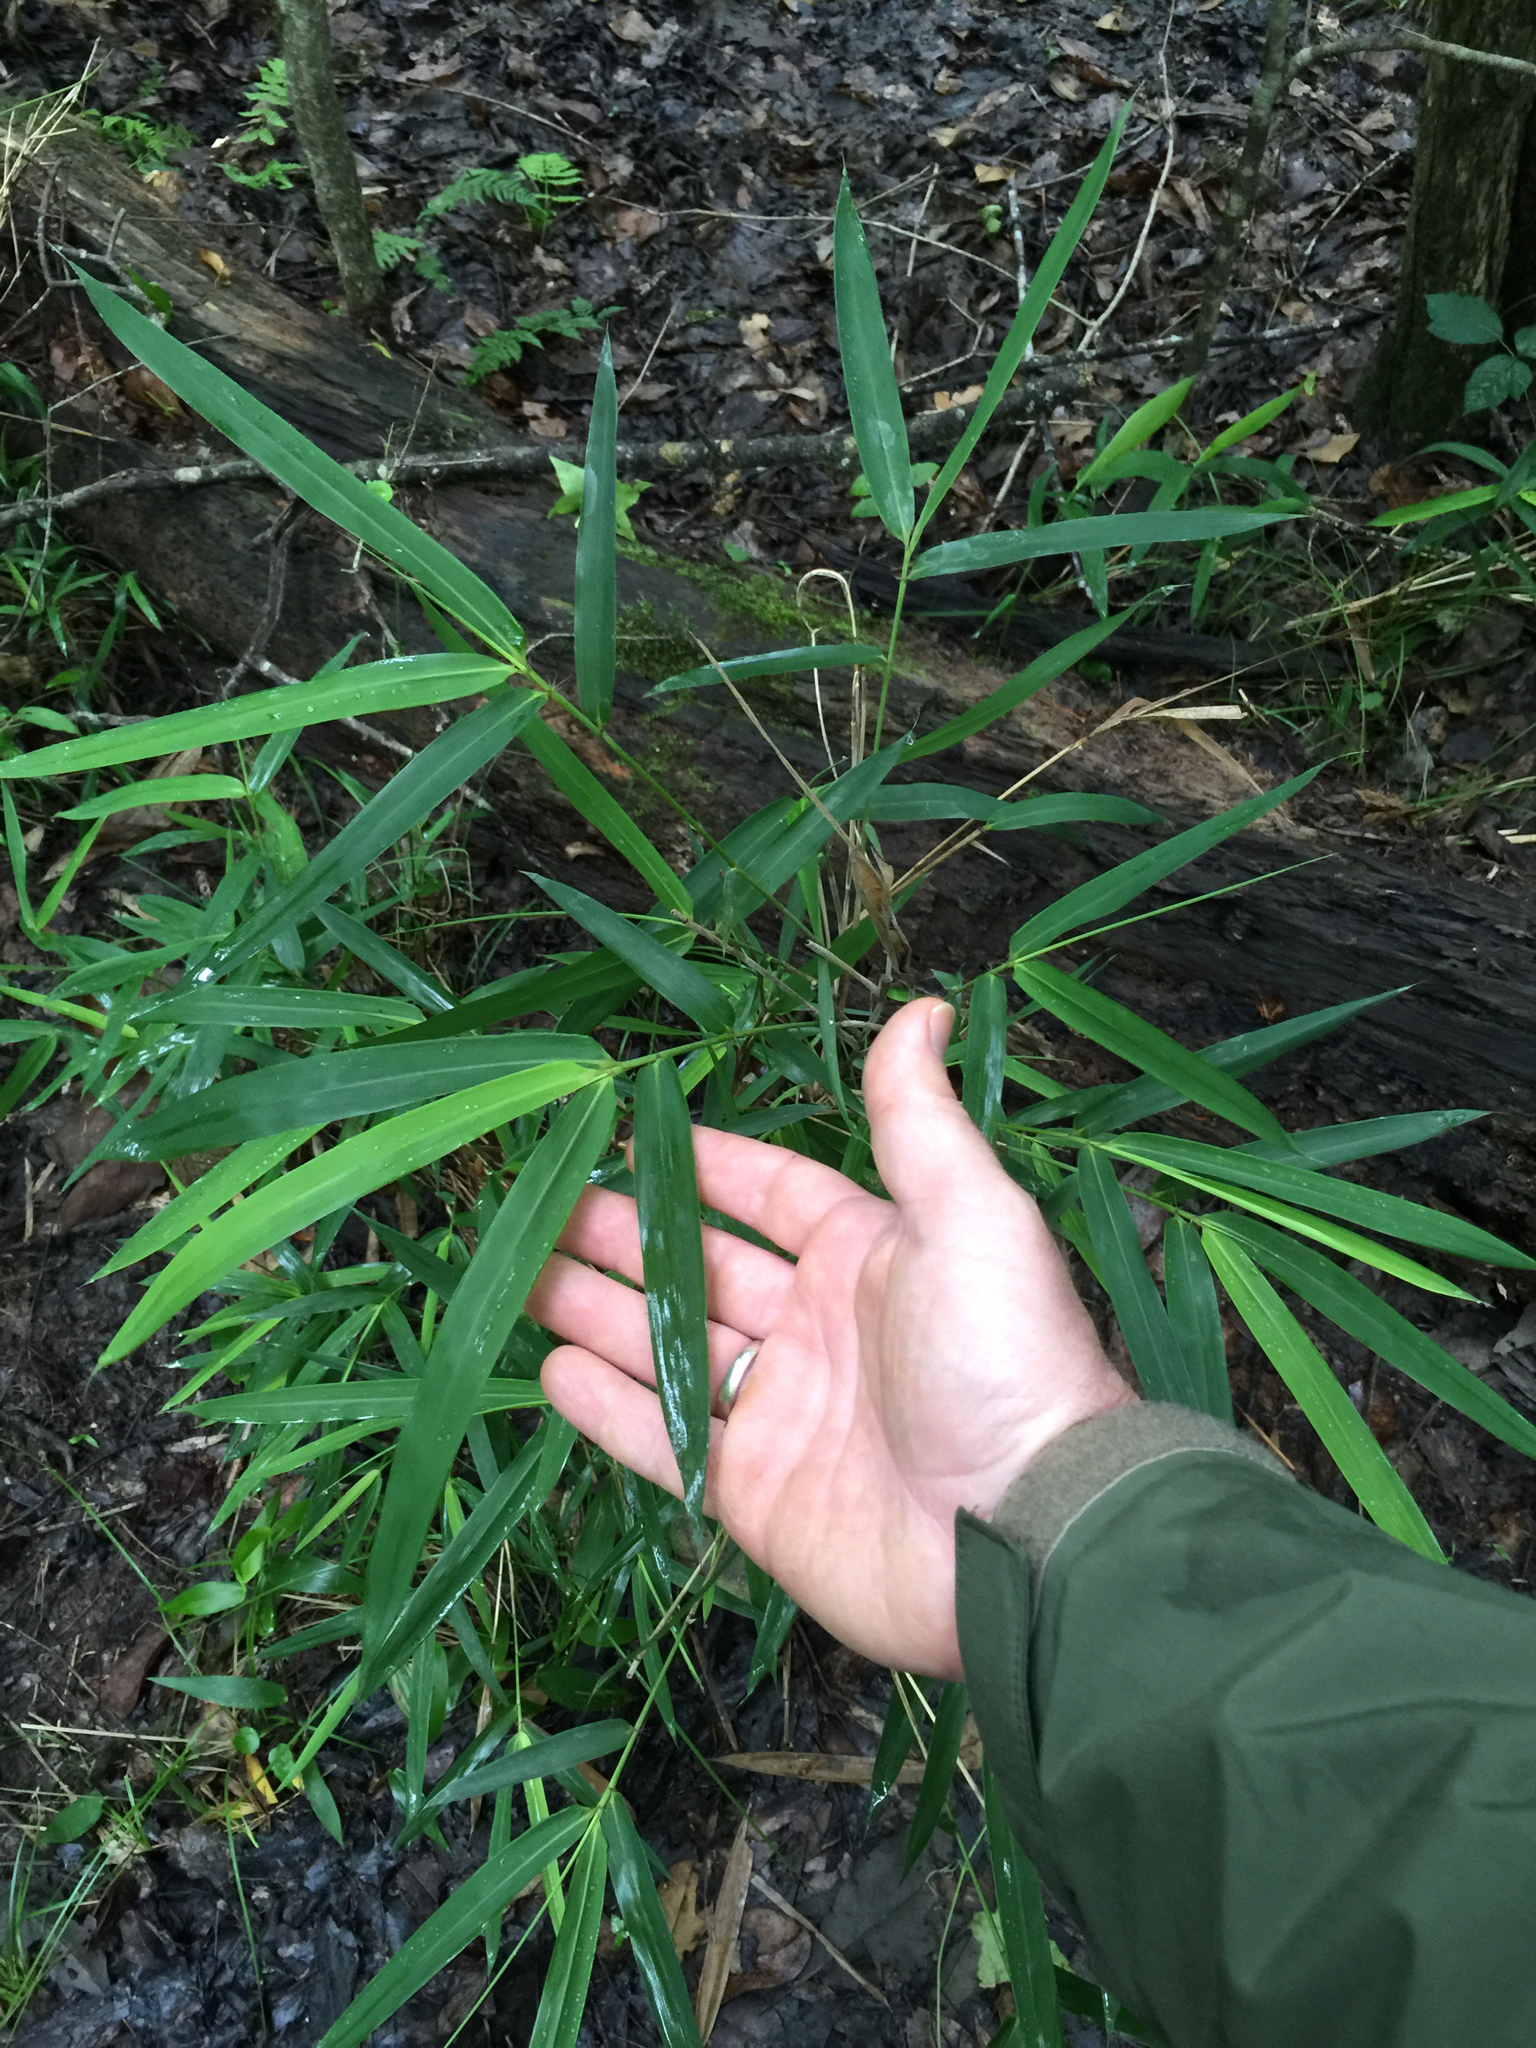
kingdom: Plantae
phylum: Tracheophyta
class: Liliopsida
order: Poales
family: Poaceae
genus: Arundinaria
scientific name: Arundinaria tecta
